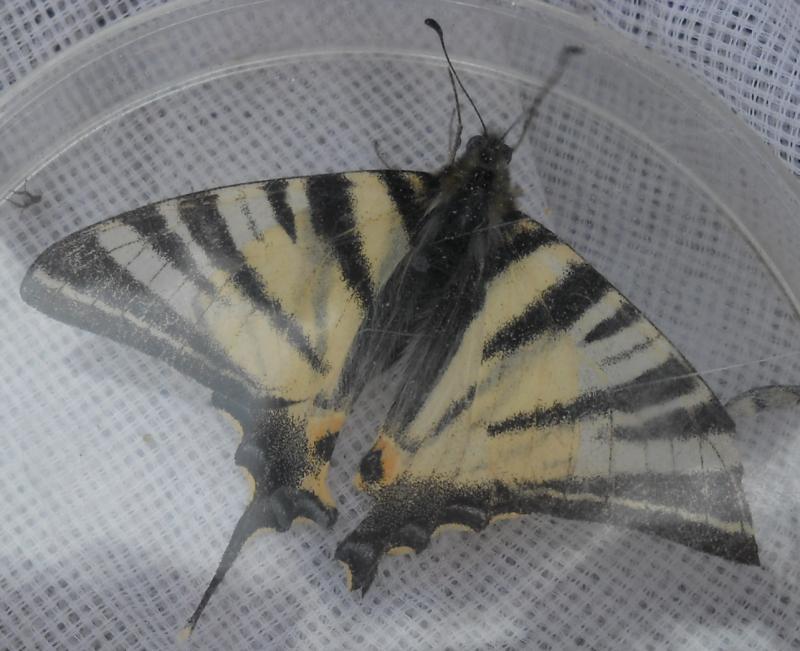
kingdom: Animalia
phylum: Arthropoda
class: Insecta
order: Lepidoptera
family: Papilionidae
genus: Iphiclides
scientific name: Iphiclides podalirius
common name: Scarce swallowtail
